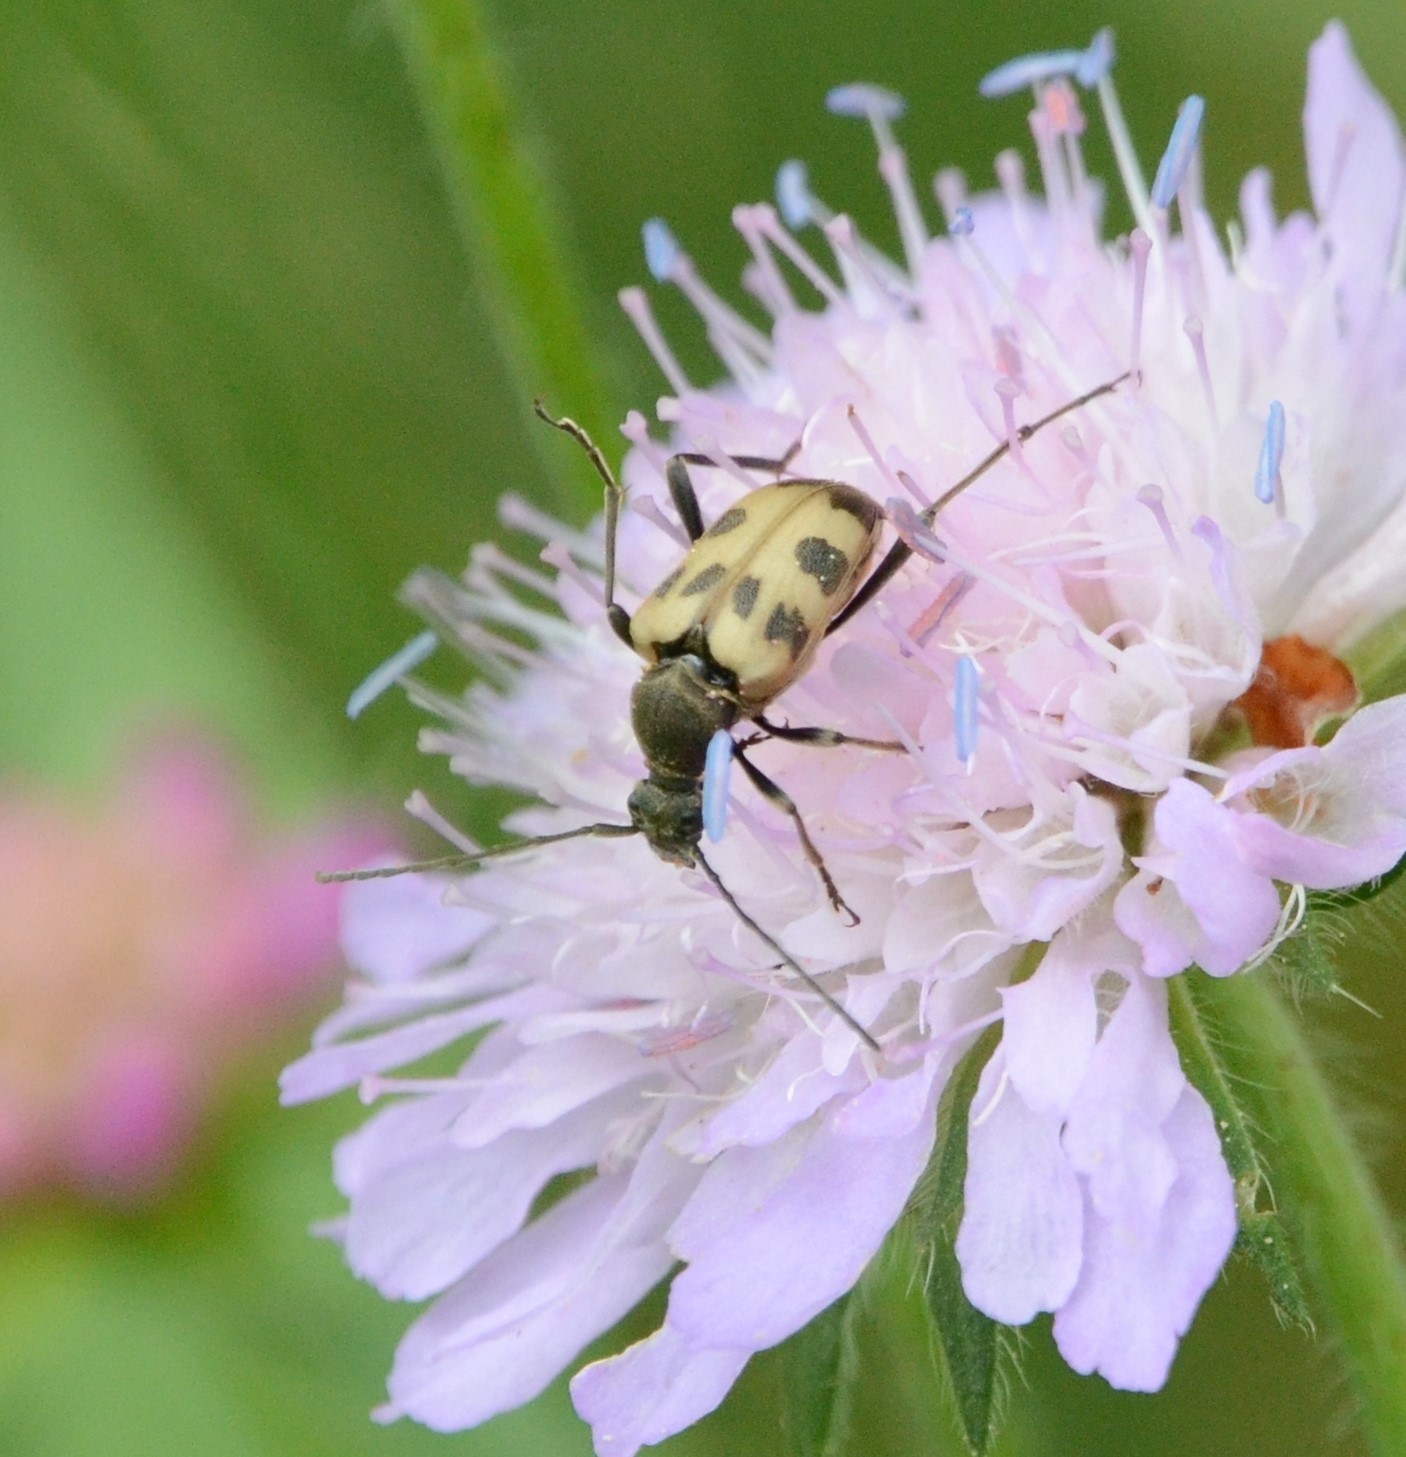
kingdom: Animalia
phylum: Arthropoda
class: Insecta
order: Coleoptera
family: Cerambycidae
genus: Pachytodes
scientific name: Pachytodes cerambyciformis
